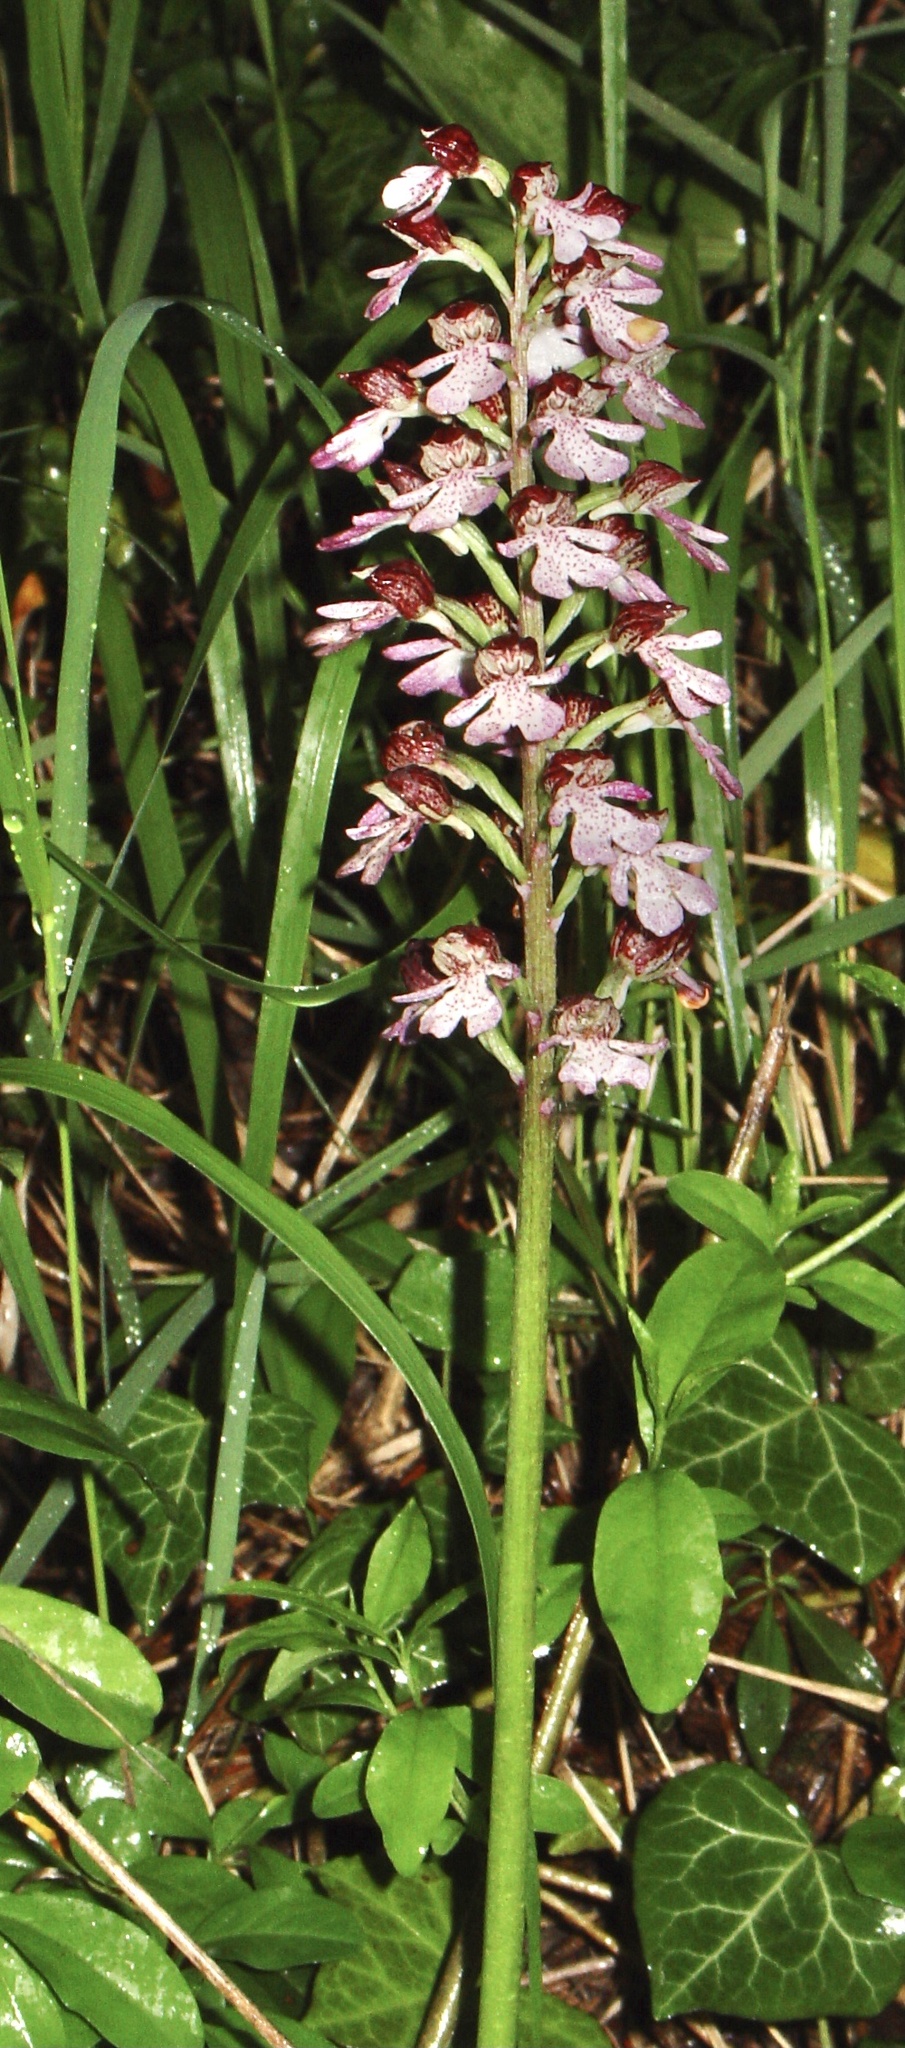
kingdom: Plantae
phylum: Tracheophyta
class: Liliopsida
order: Asparagales
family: Orchidaceae
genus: Orchis
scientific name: Orchis purpurea
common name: Lady orchid
